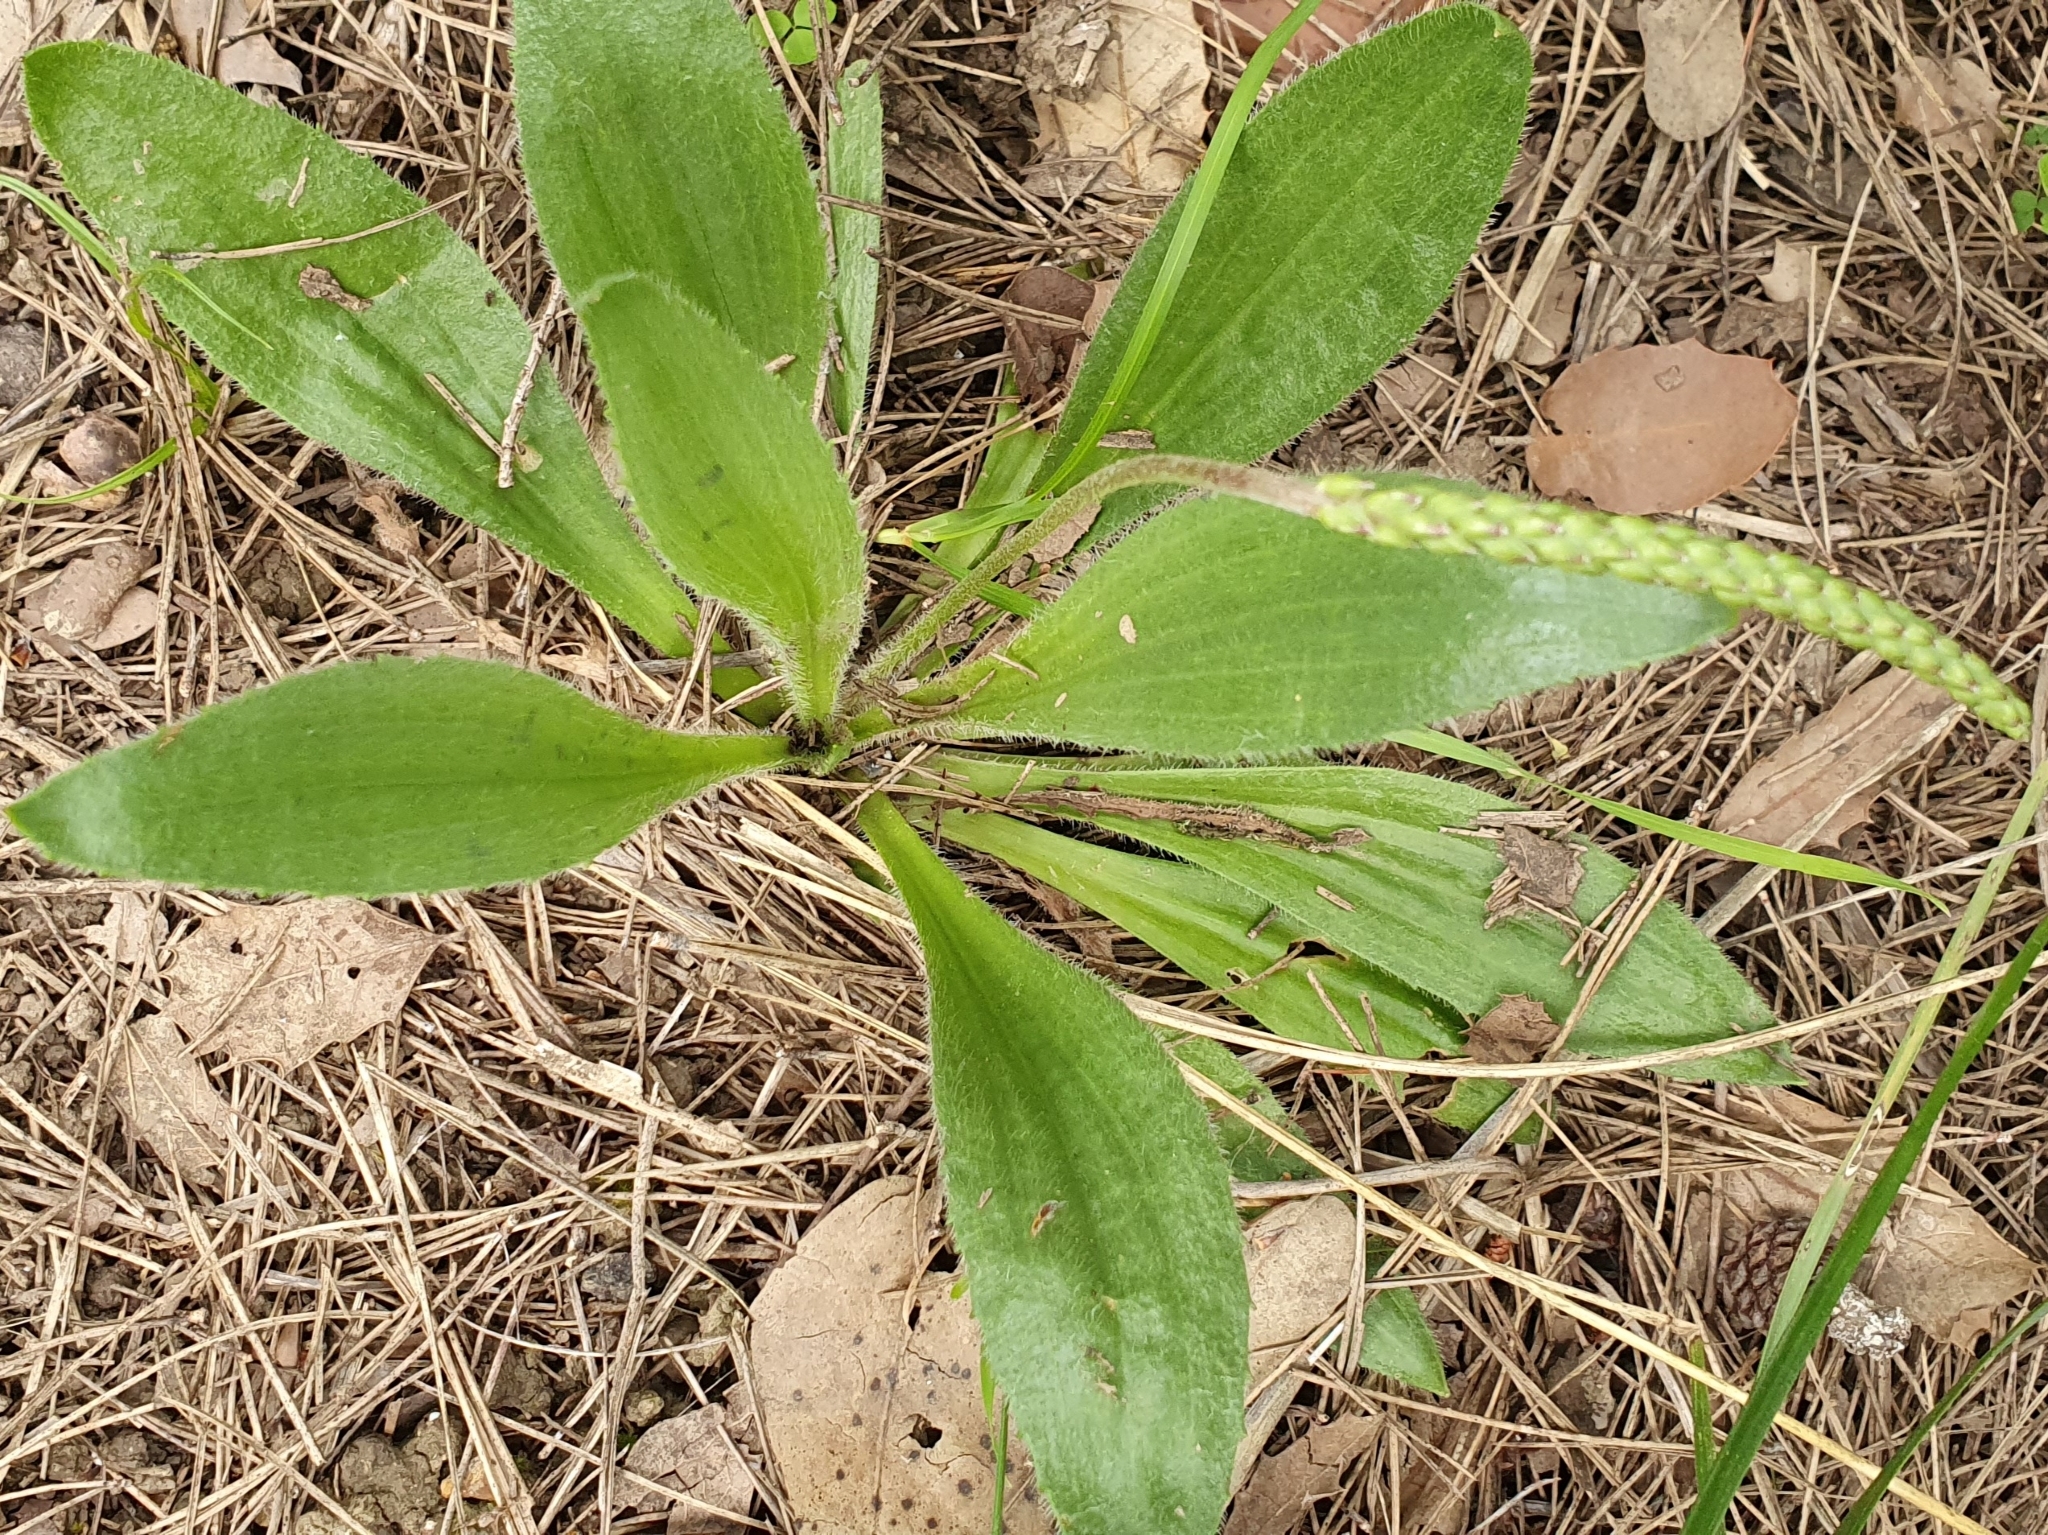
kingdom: Plantae
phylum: Tracheophyta
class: Magnoliopsida
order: Lamiales
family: Plantaginaceae
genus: Plantago
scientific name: Plantago serraria
